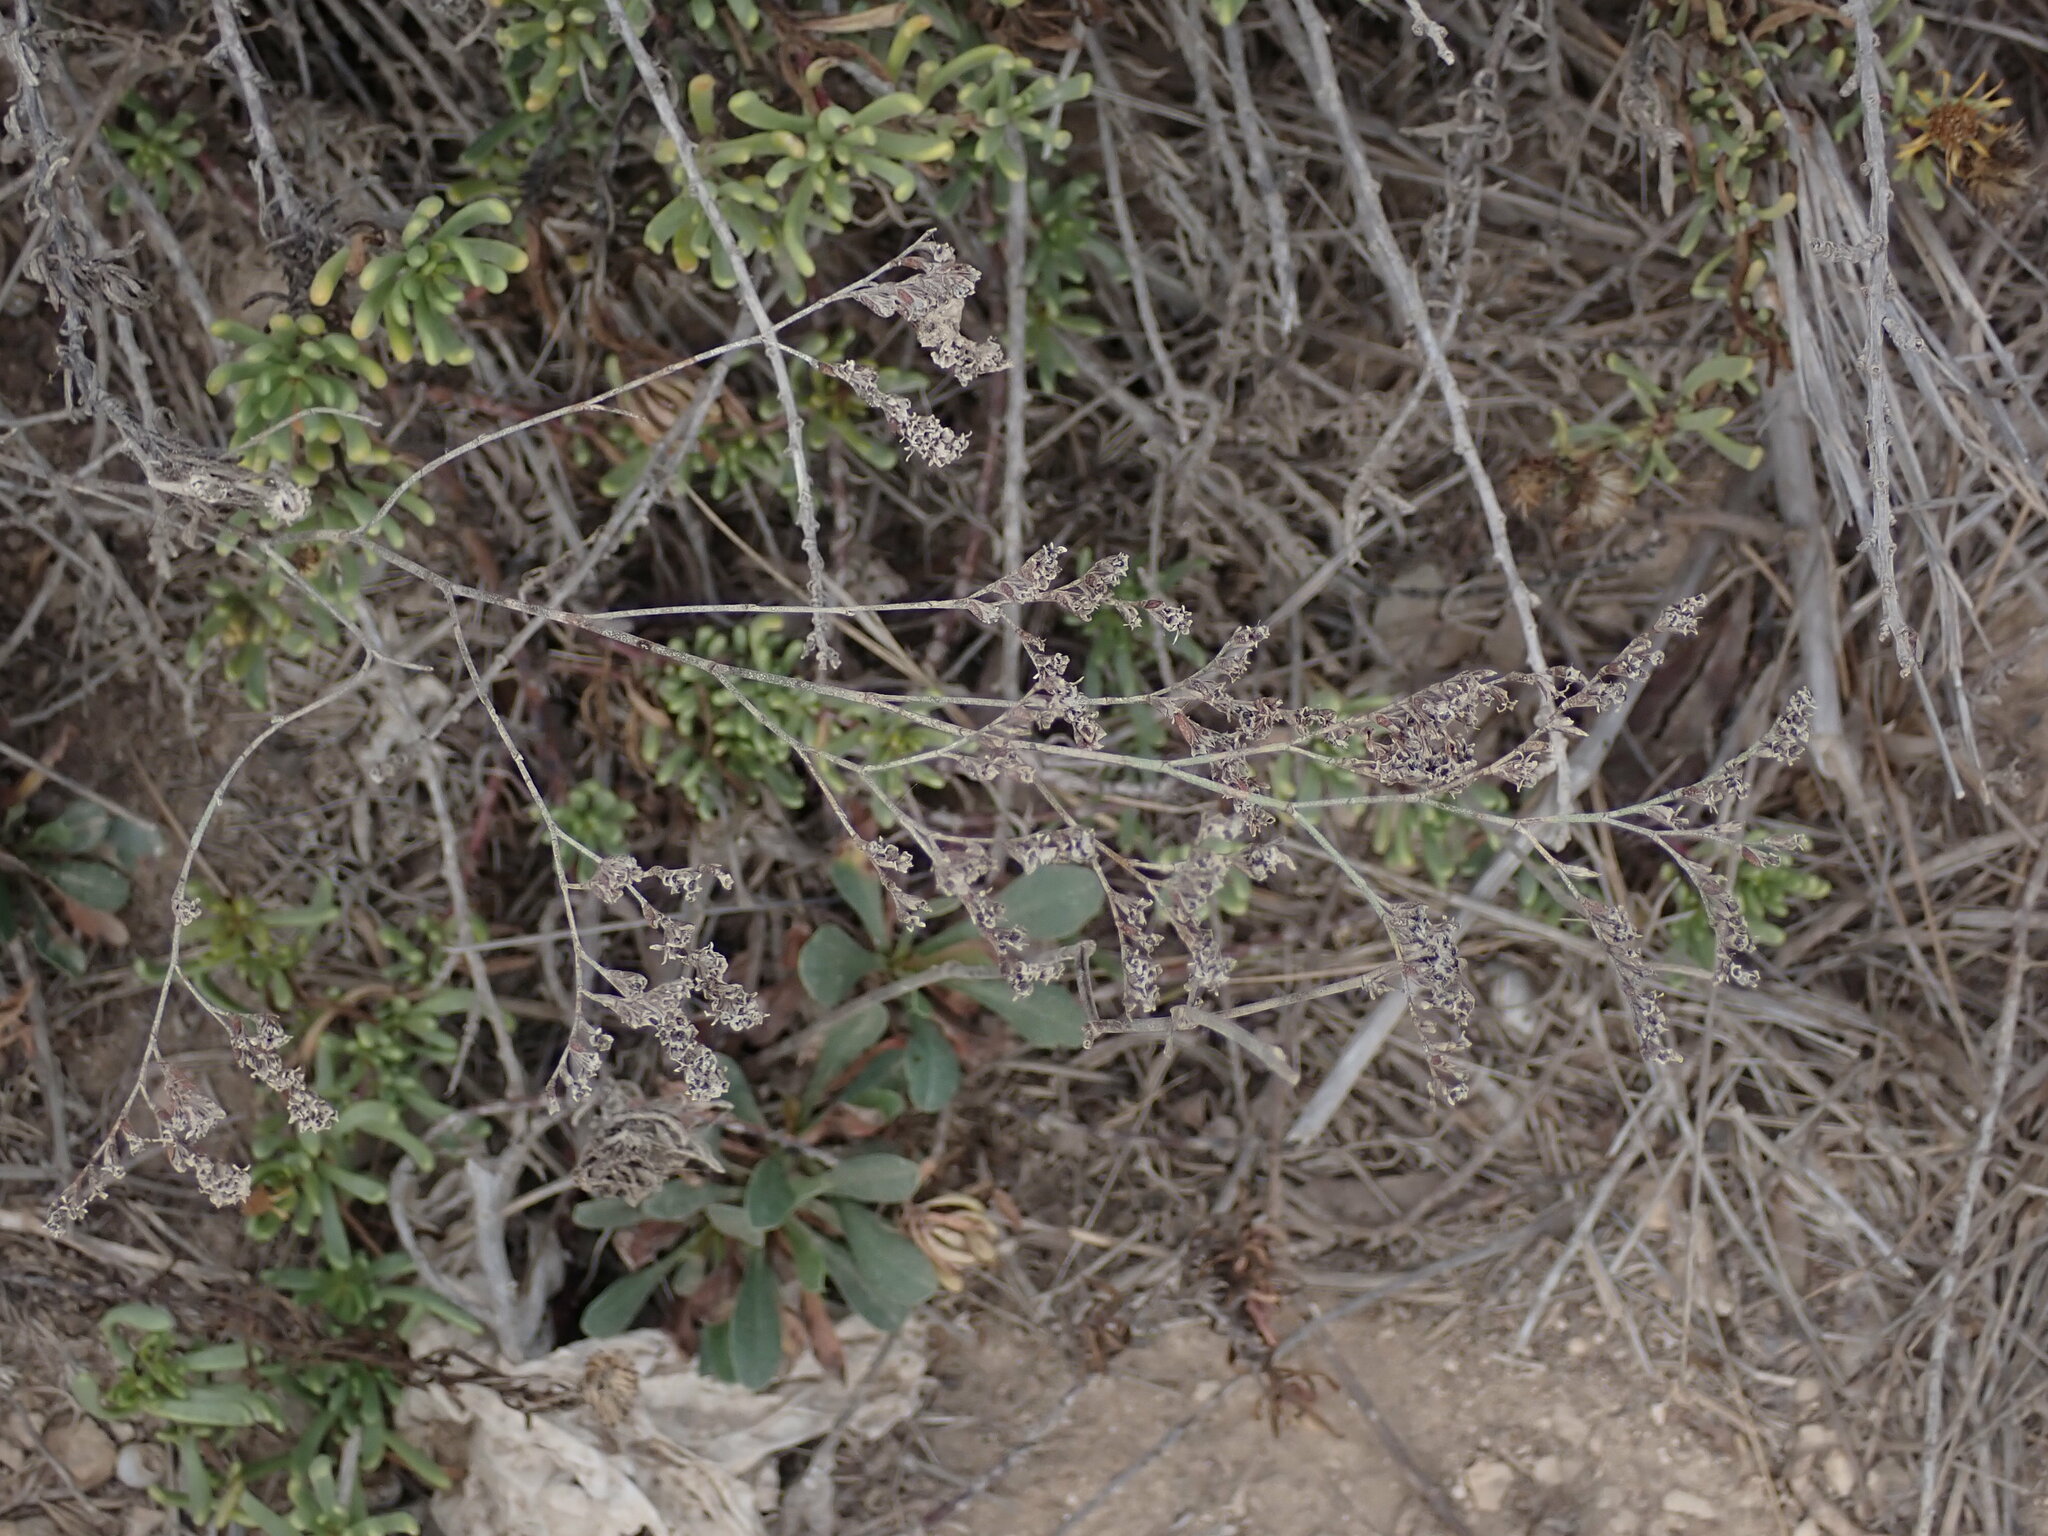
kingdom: Plantae
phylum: Tracheophyta
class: Magnoliopsida
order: Caryophyllales
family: Plumbaginaceae
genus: Limonium
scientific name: Limonium virgatum
